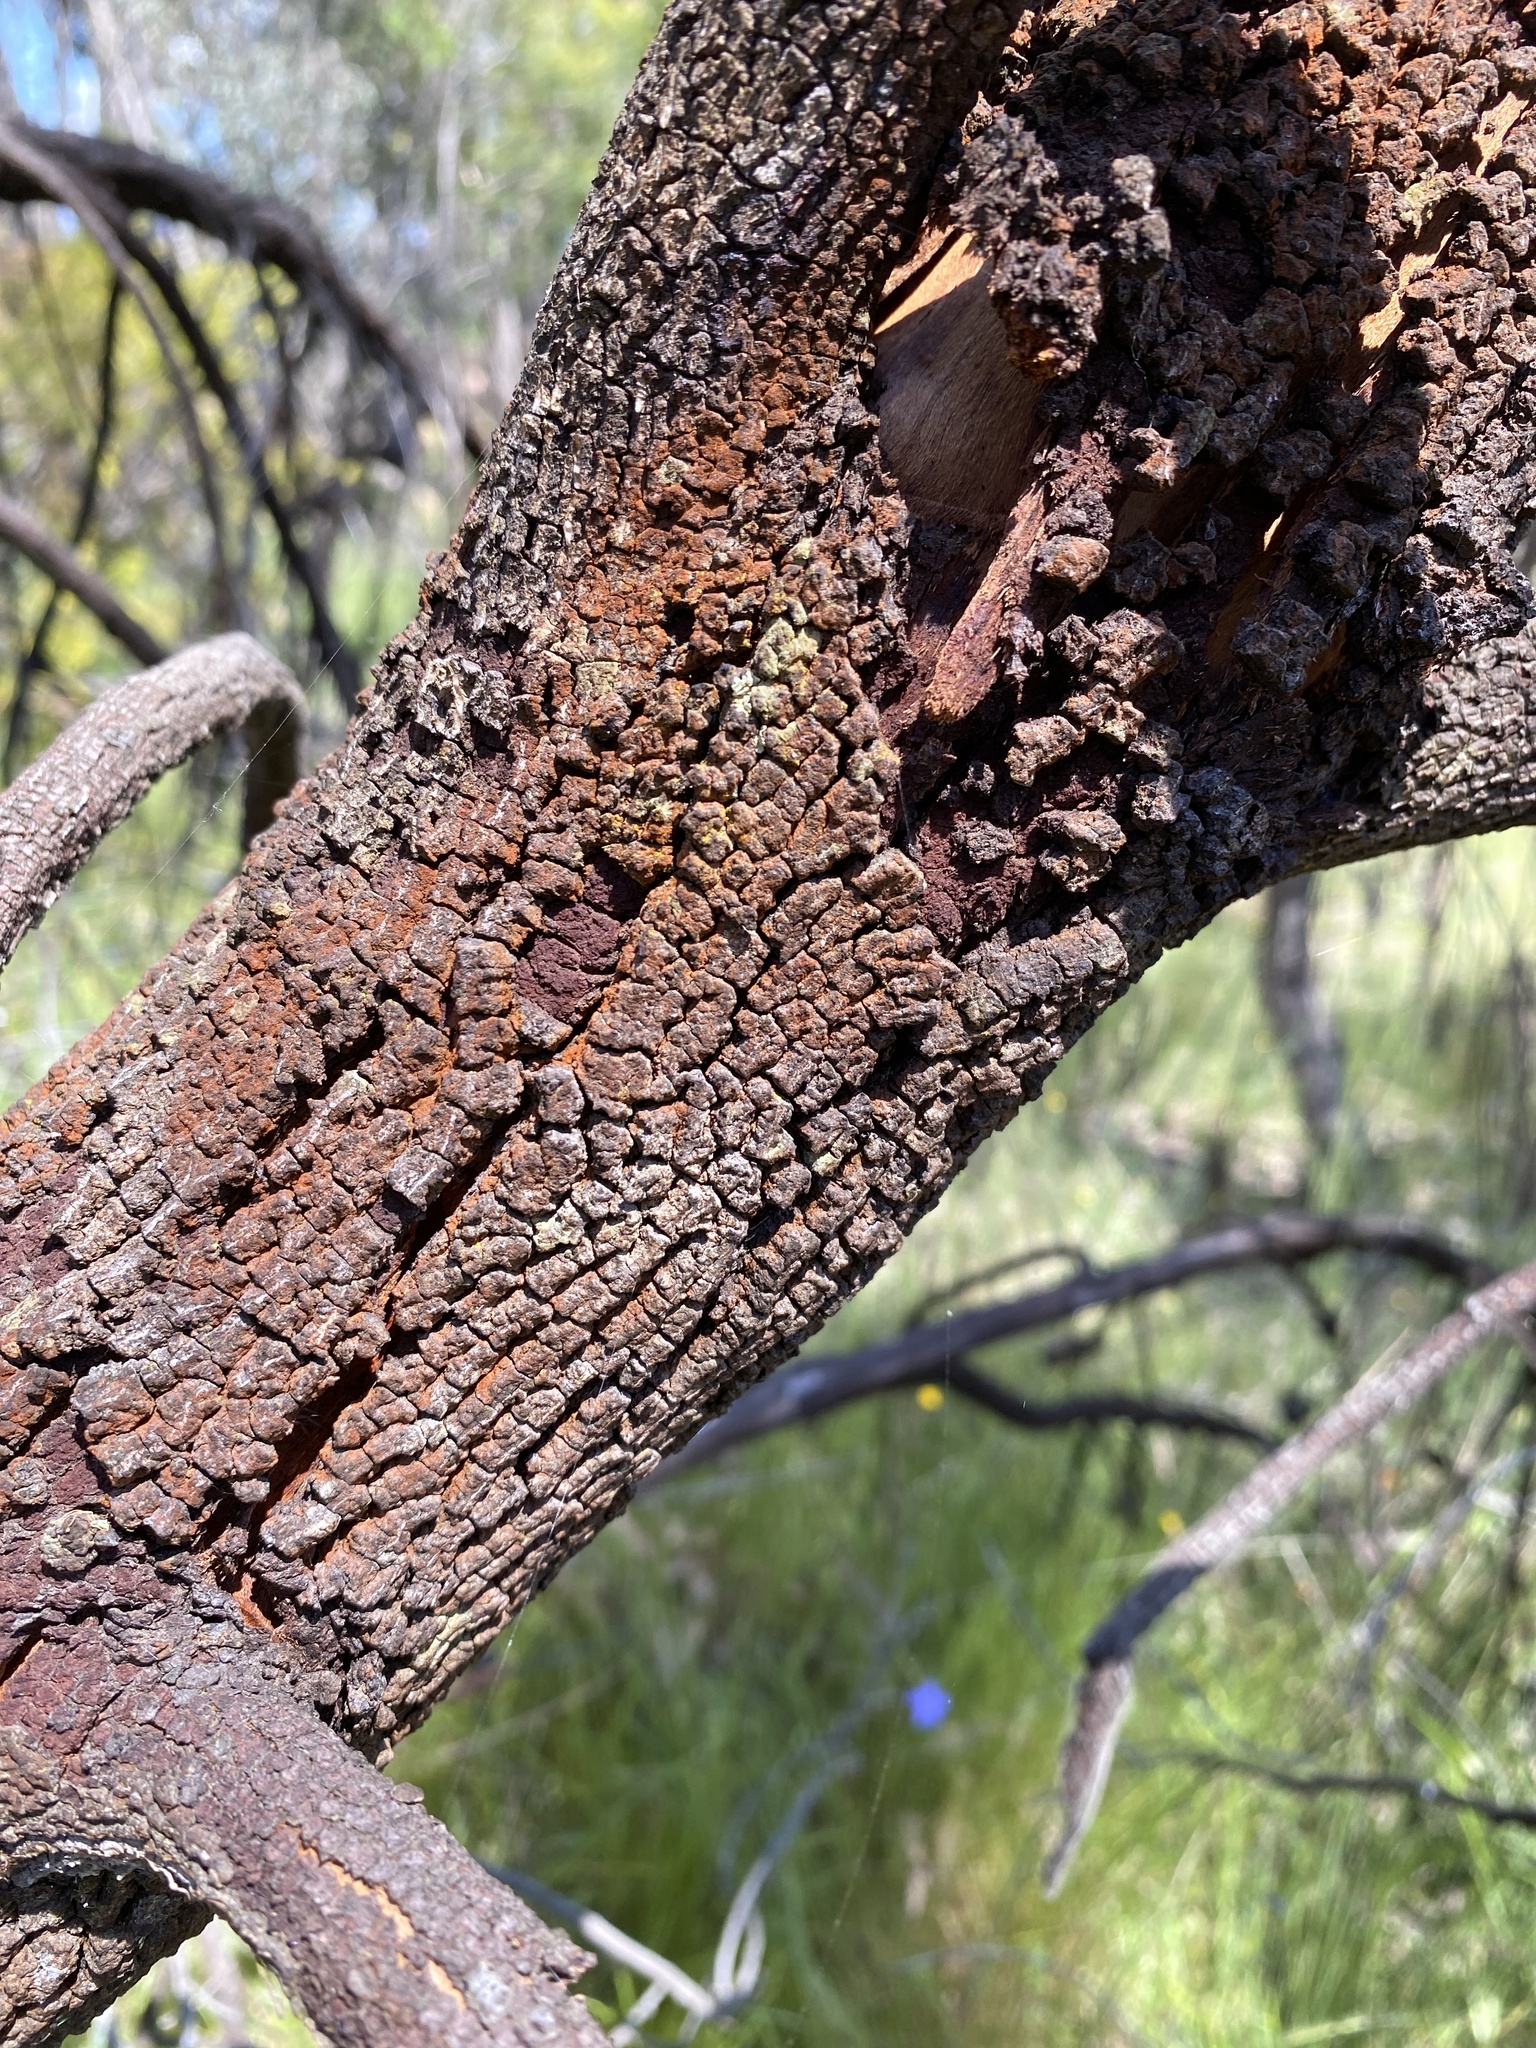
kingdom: Plantae
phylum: Tracheophyta
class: Magnoliopsida
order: Santalales
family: Santalaceae
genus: Exocarpos
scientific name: Exocarpos cupressiformis
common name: Cherry ballart
